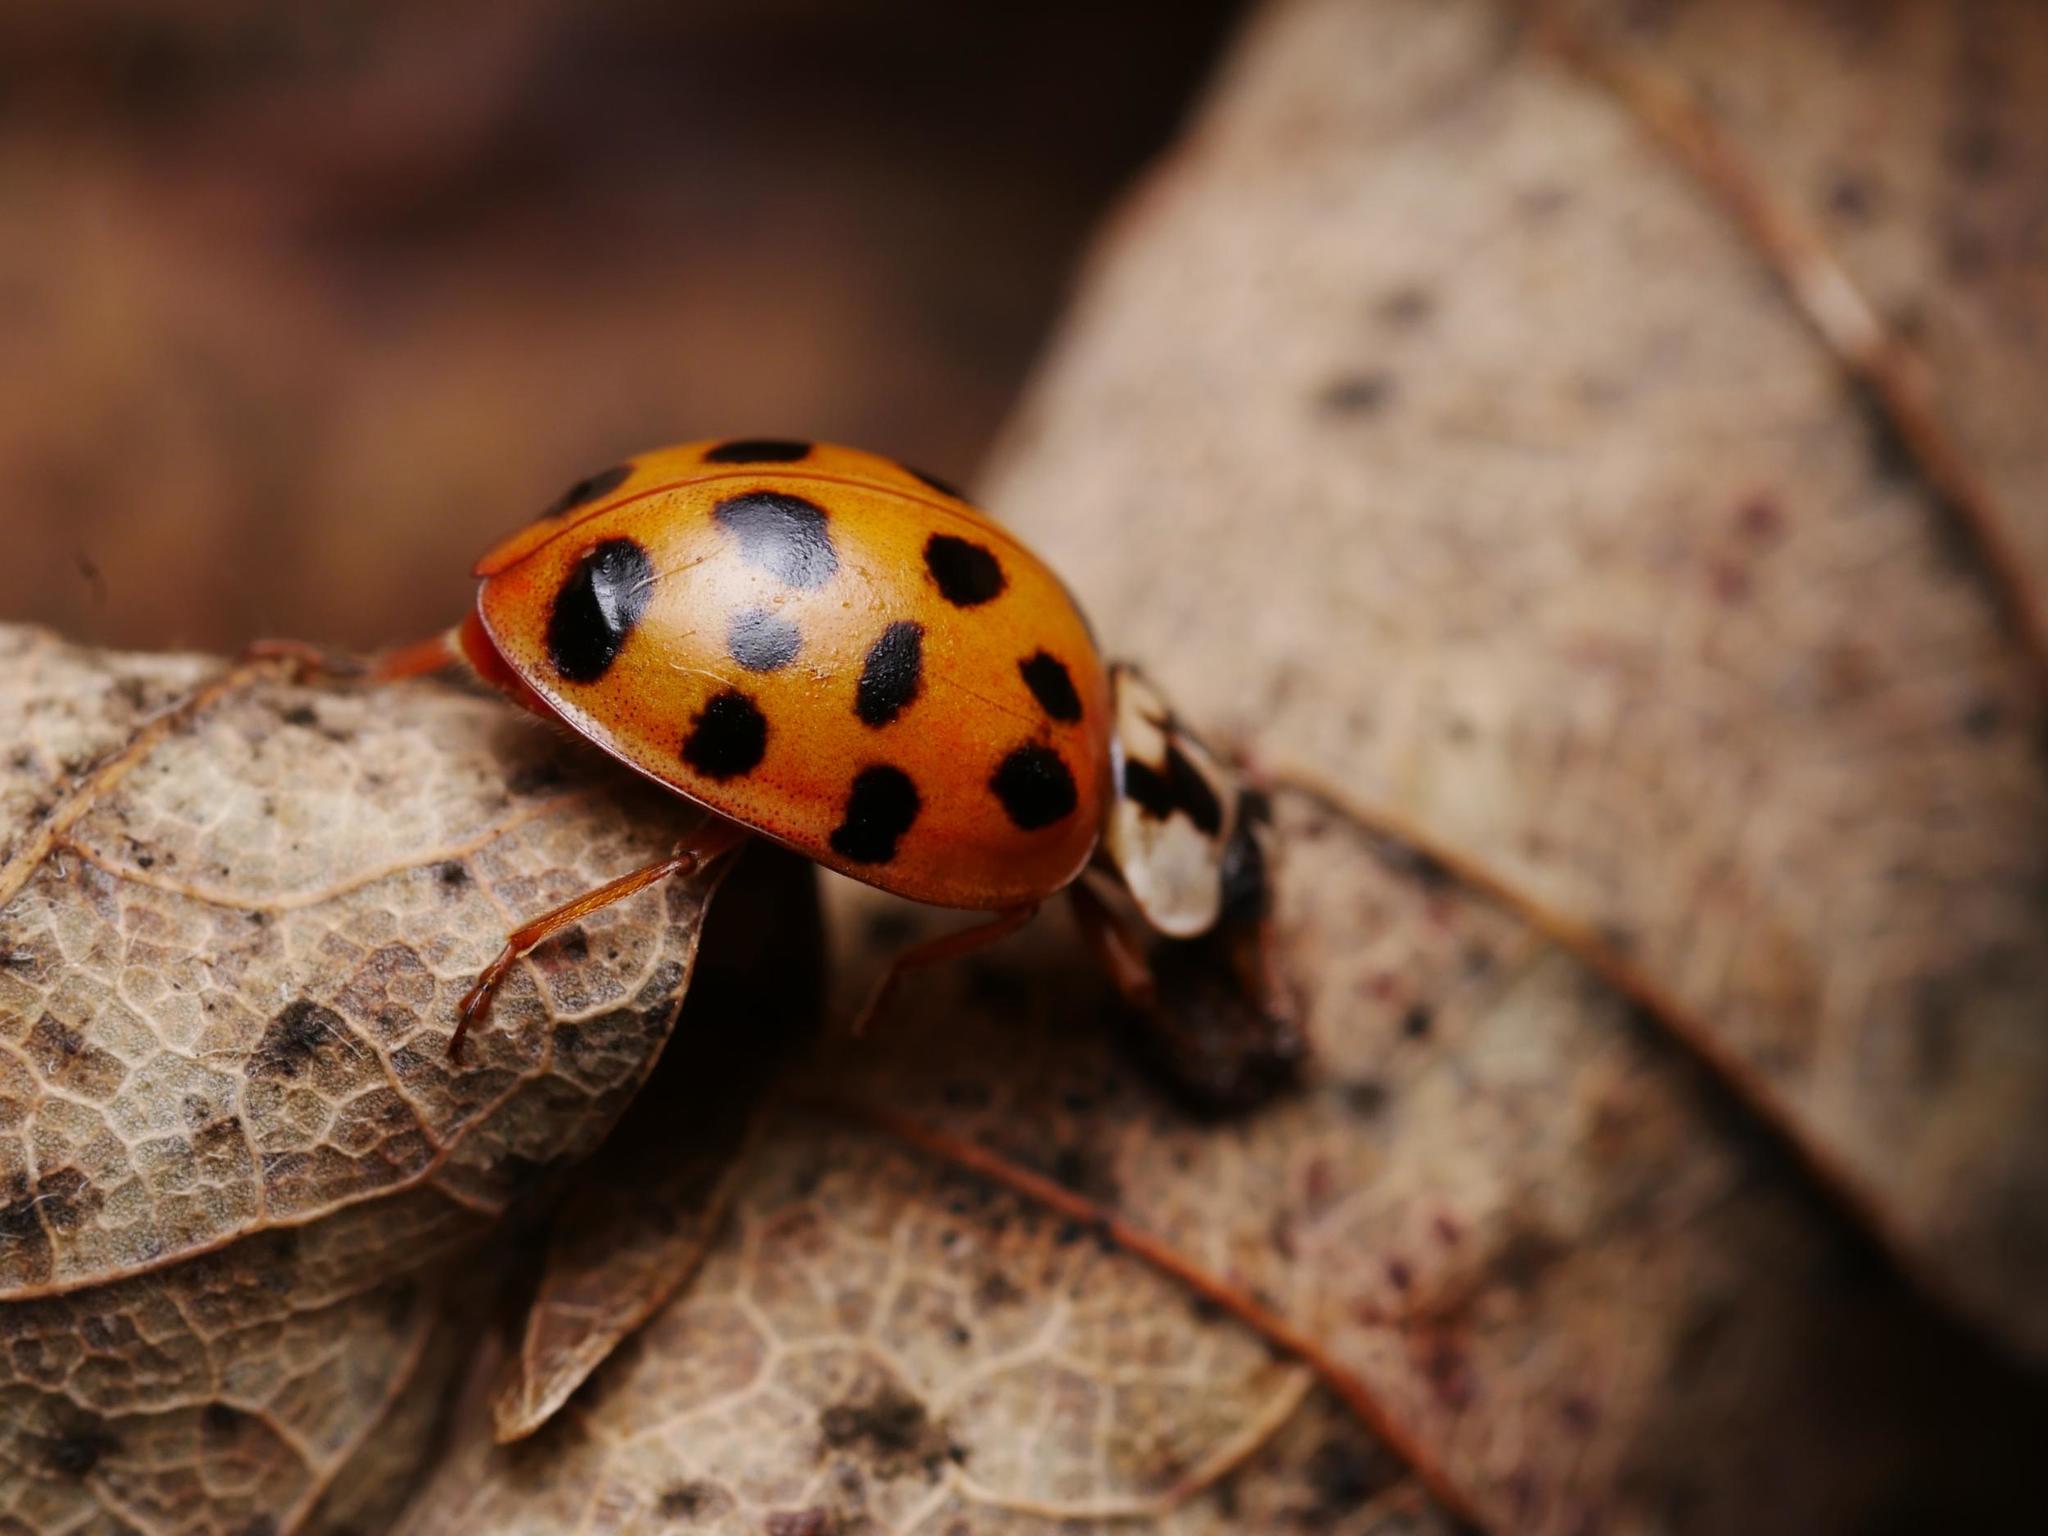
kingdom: Animalia
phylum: Arthropoda
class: Insecta
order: Coleoptera
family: Coccinellidae
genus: Harmonia
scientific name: Harmonia axyridis
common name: Harlequin ladybird
